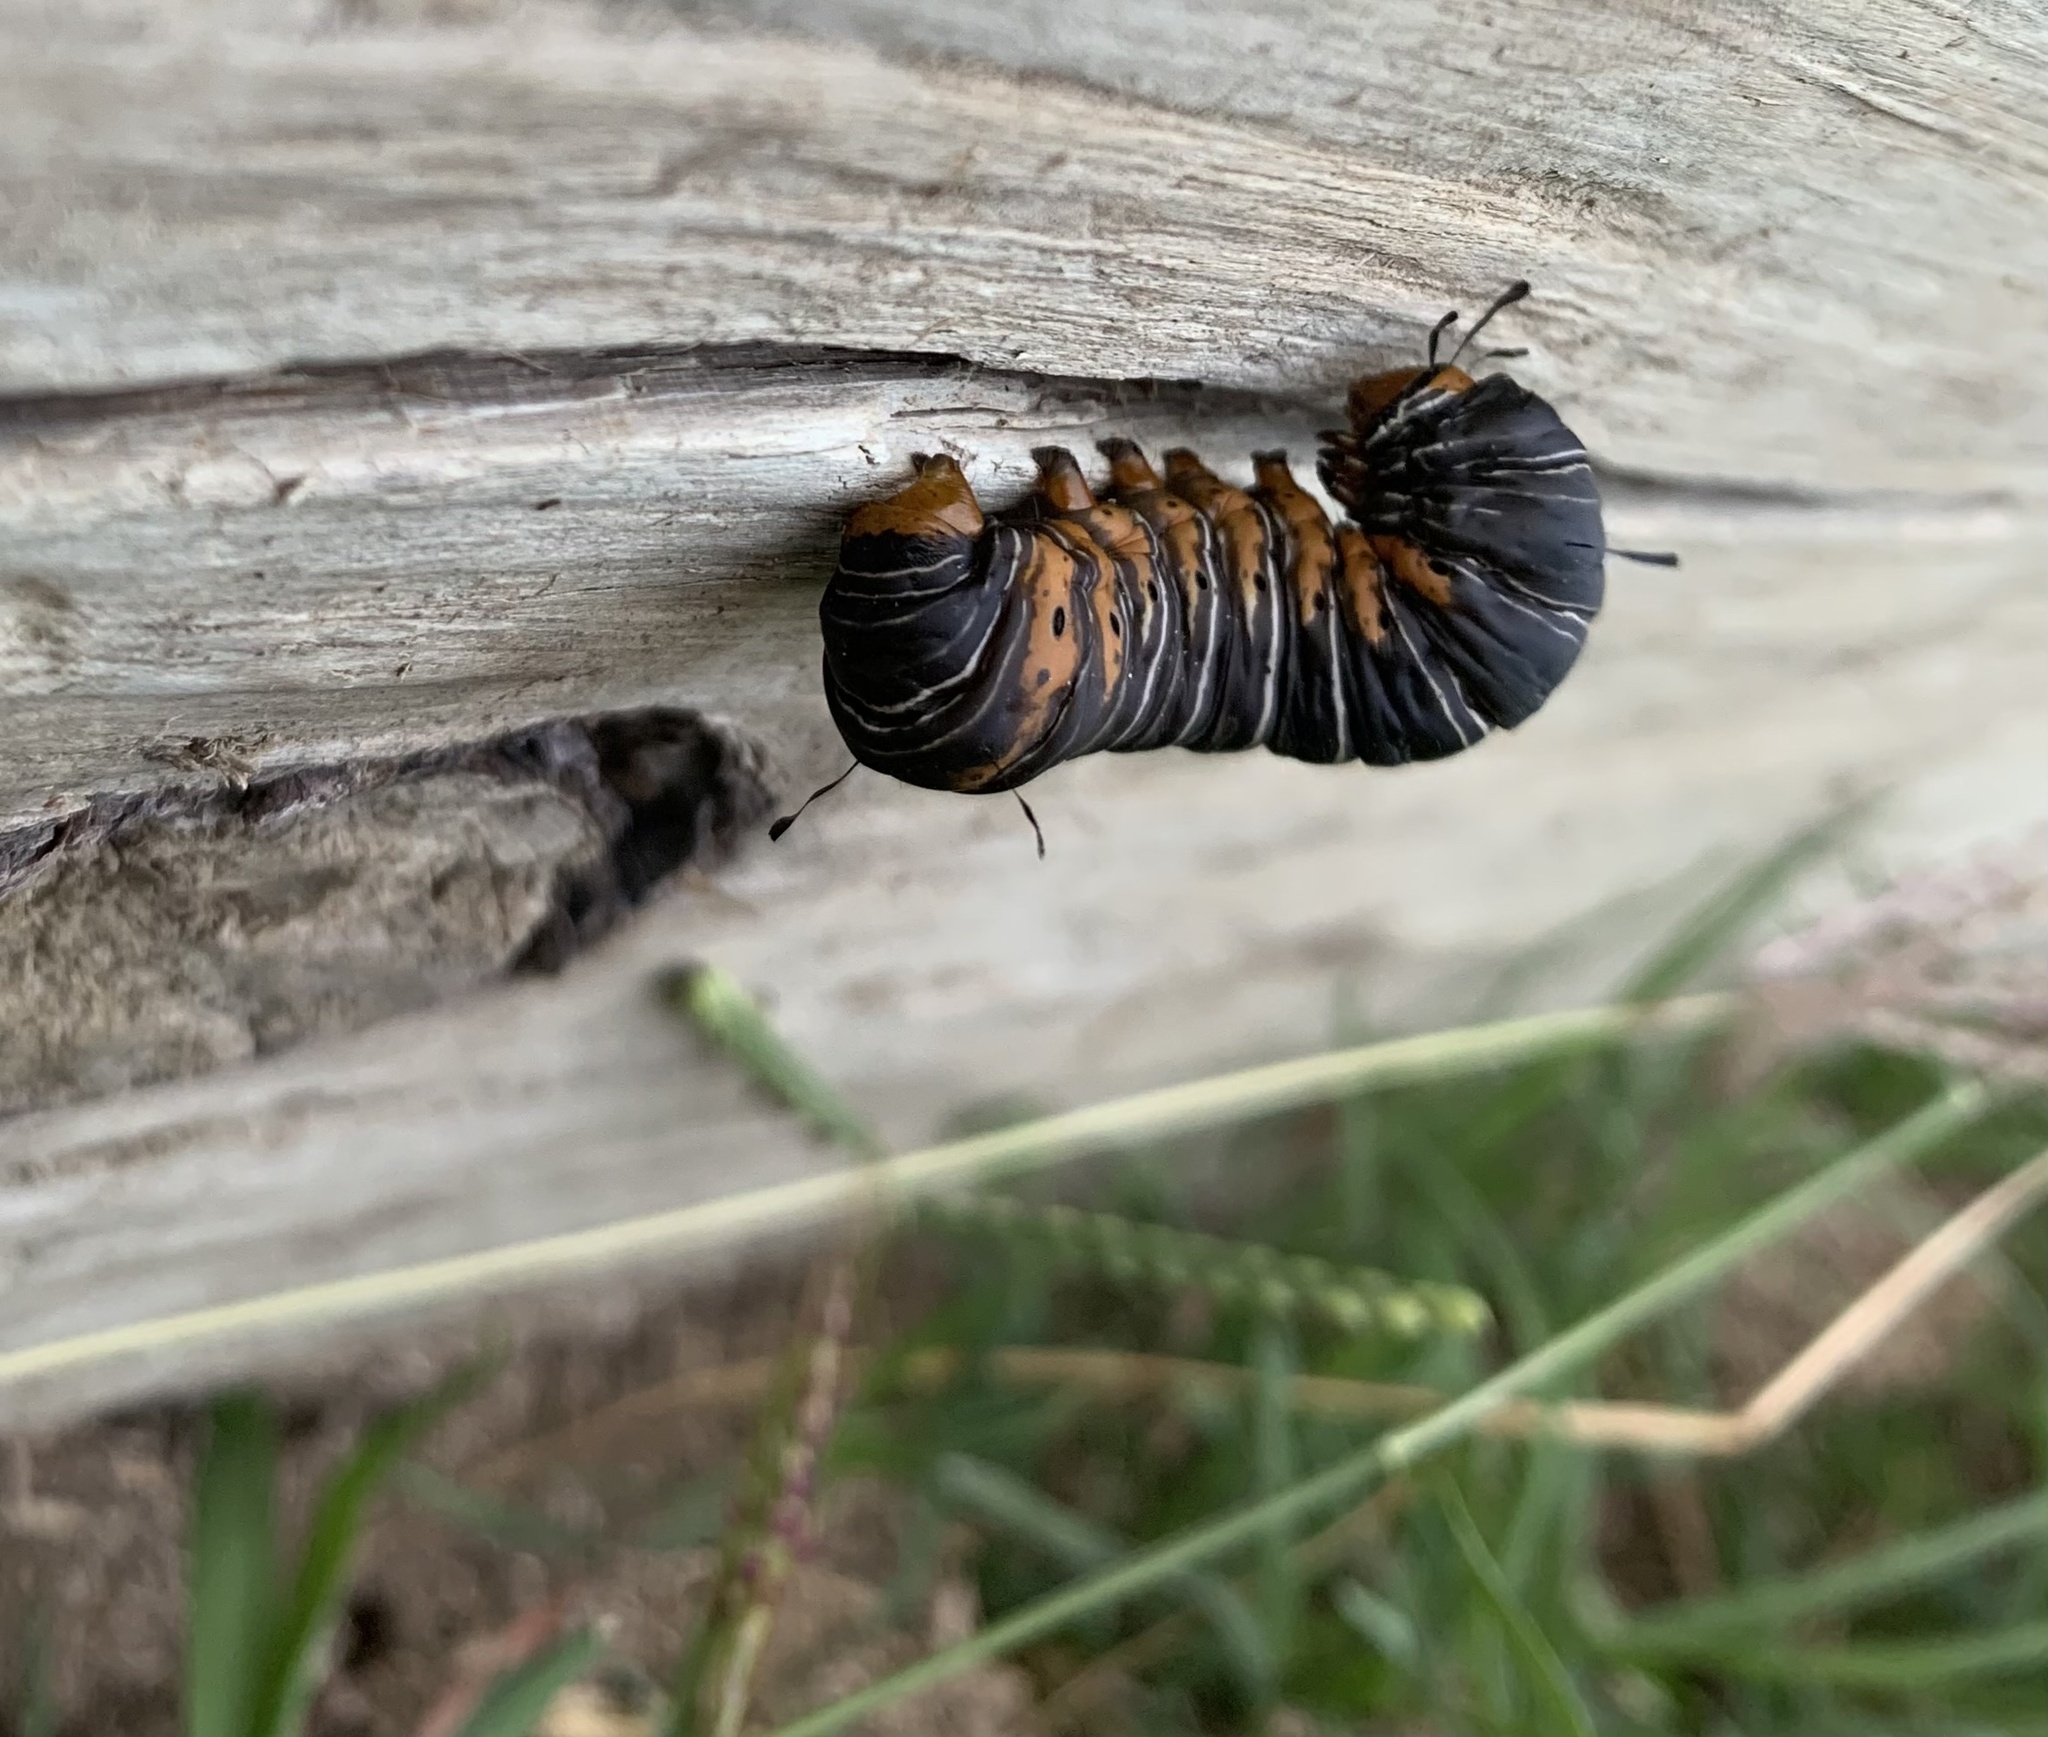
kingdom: Animalia
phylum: Arthropoda
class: Insecta
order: Lepidoptera
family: Noctuidae
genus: Xerociris
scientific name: Xerociris wilsonii
